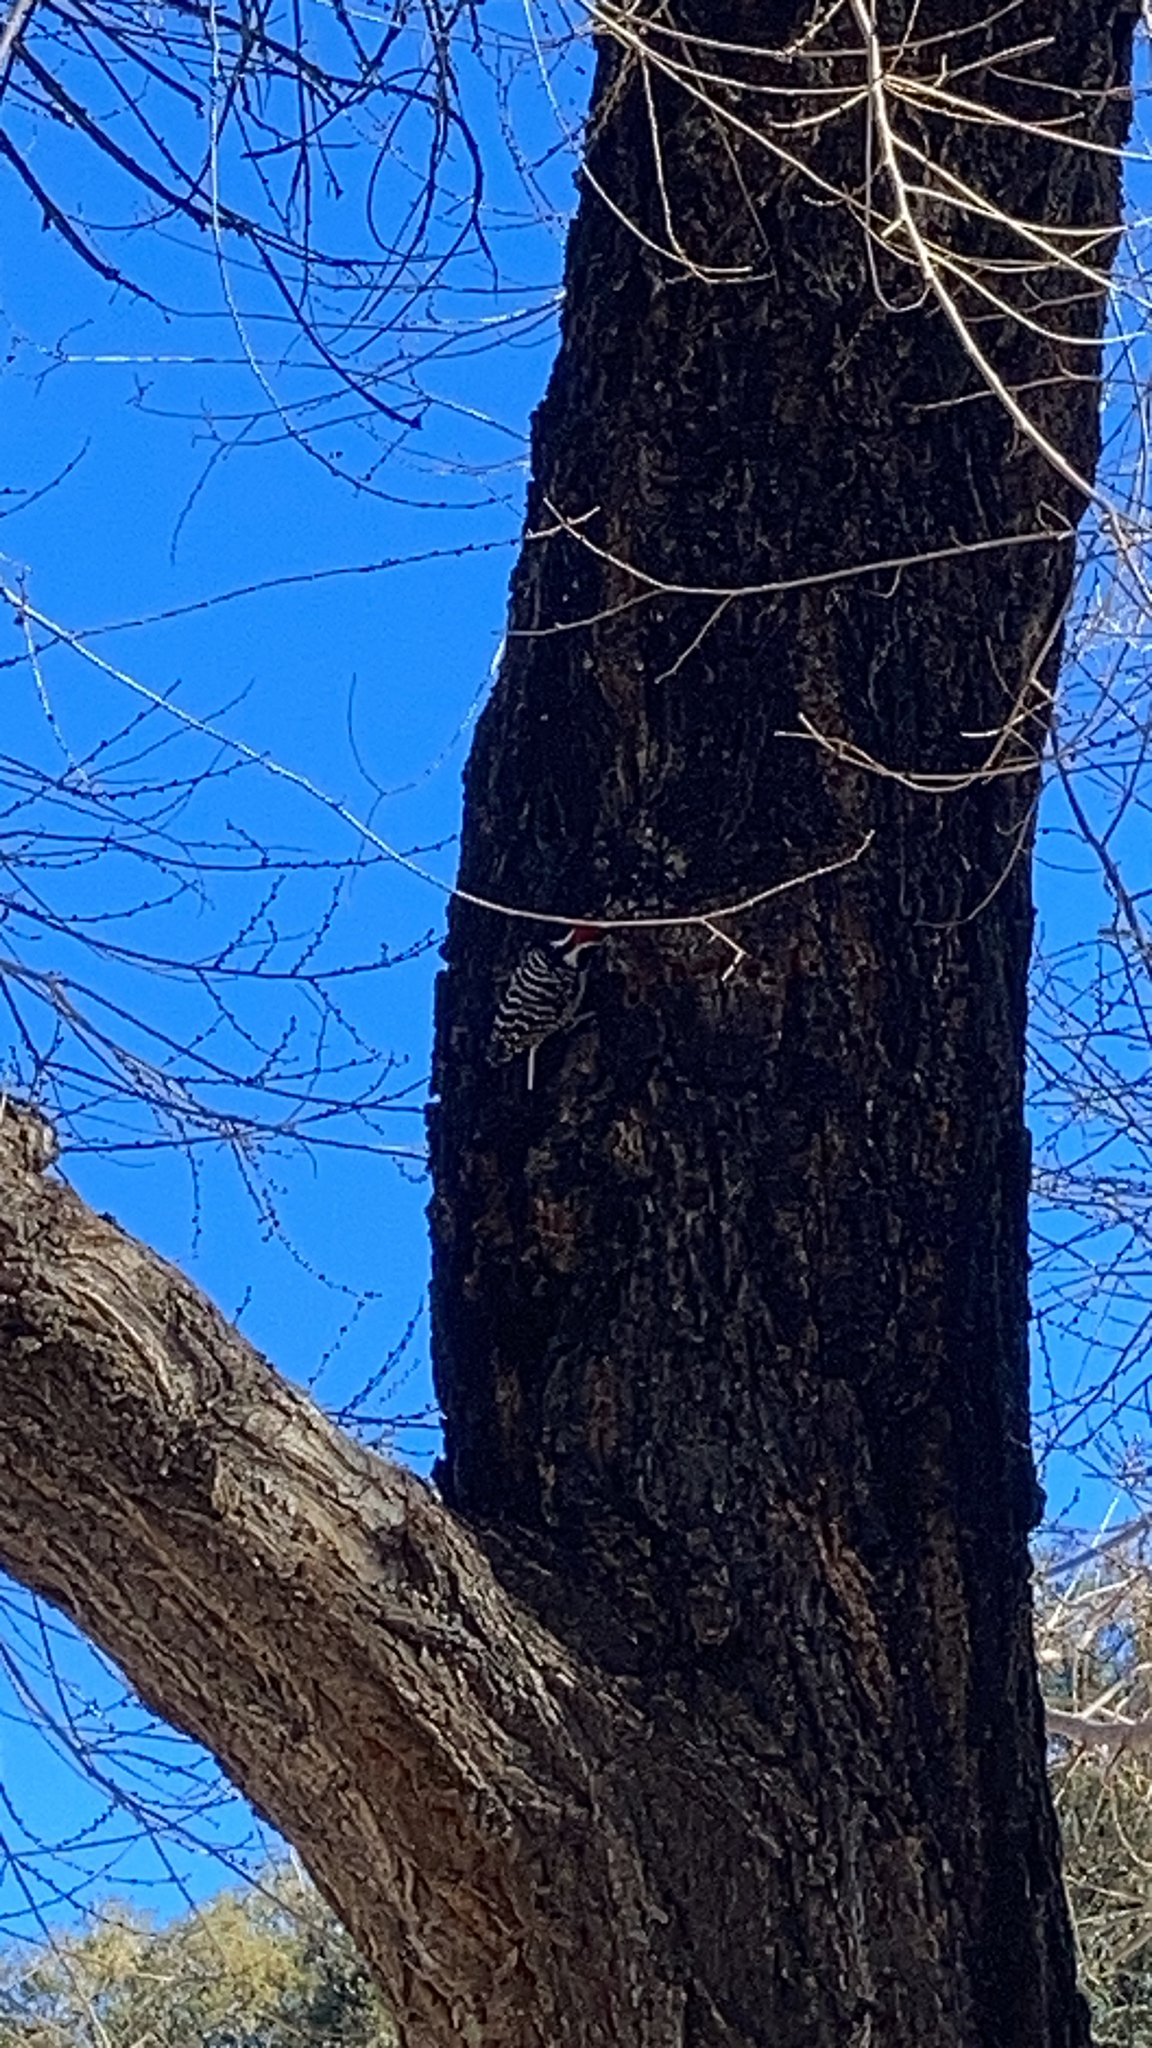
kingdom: Animalia
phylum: Chordata
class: Aves
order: Piciformes
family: Picidae
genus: Dryobates
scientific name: Dryobates nuttallii
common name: Nuttall's woodpecker
